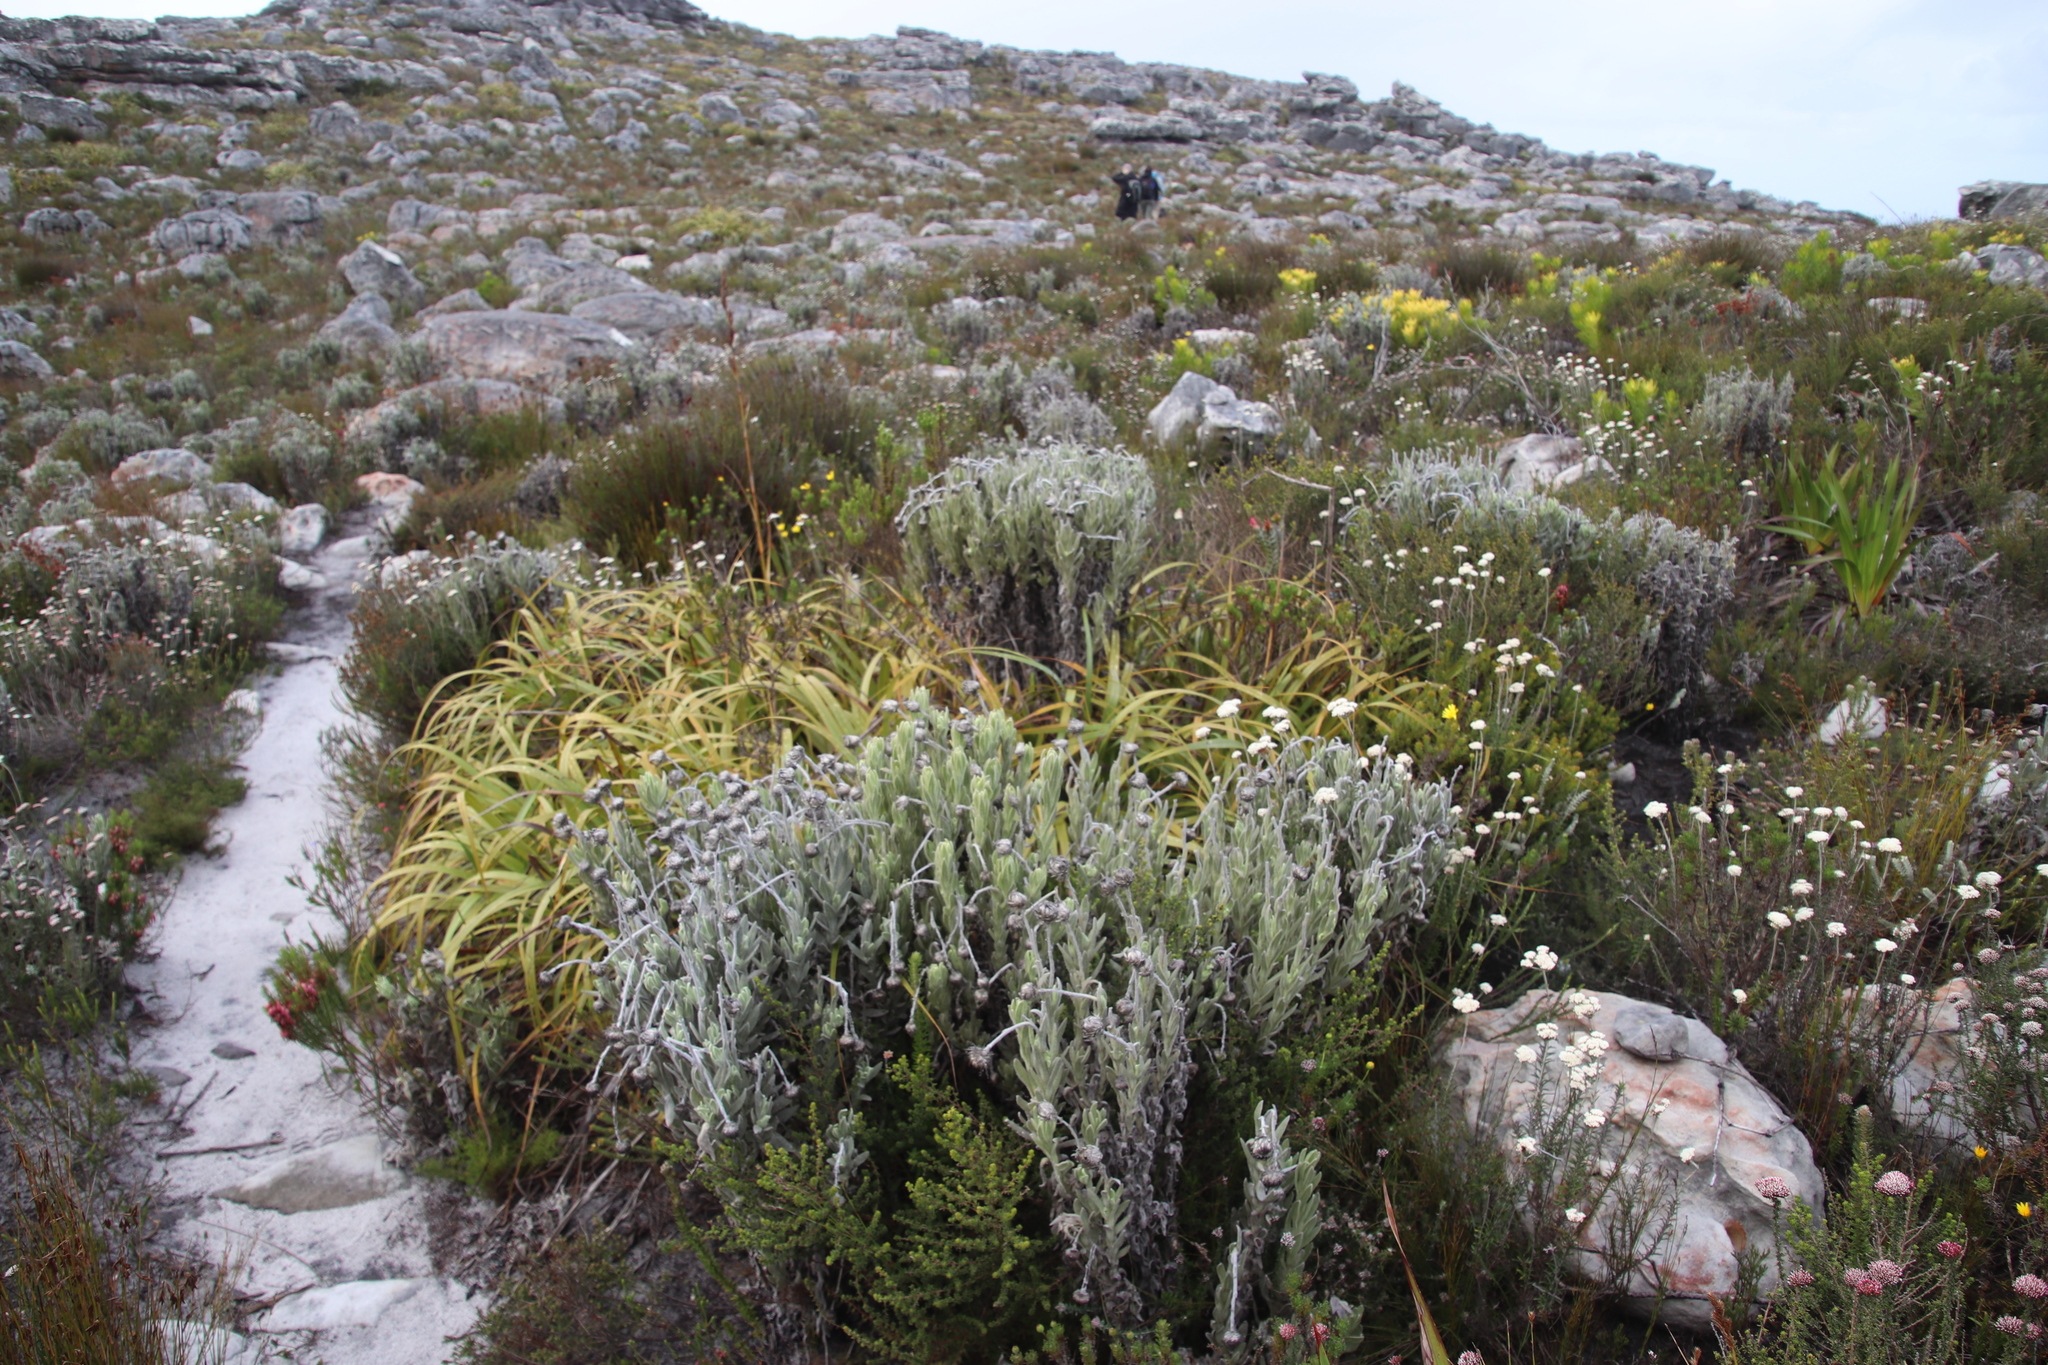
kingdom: Plantae
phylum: Tracheophyta
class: Magnoliopsida
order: Asterales
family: Asteraceae
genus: Syncarpha
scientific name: Syncarpha vestita
